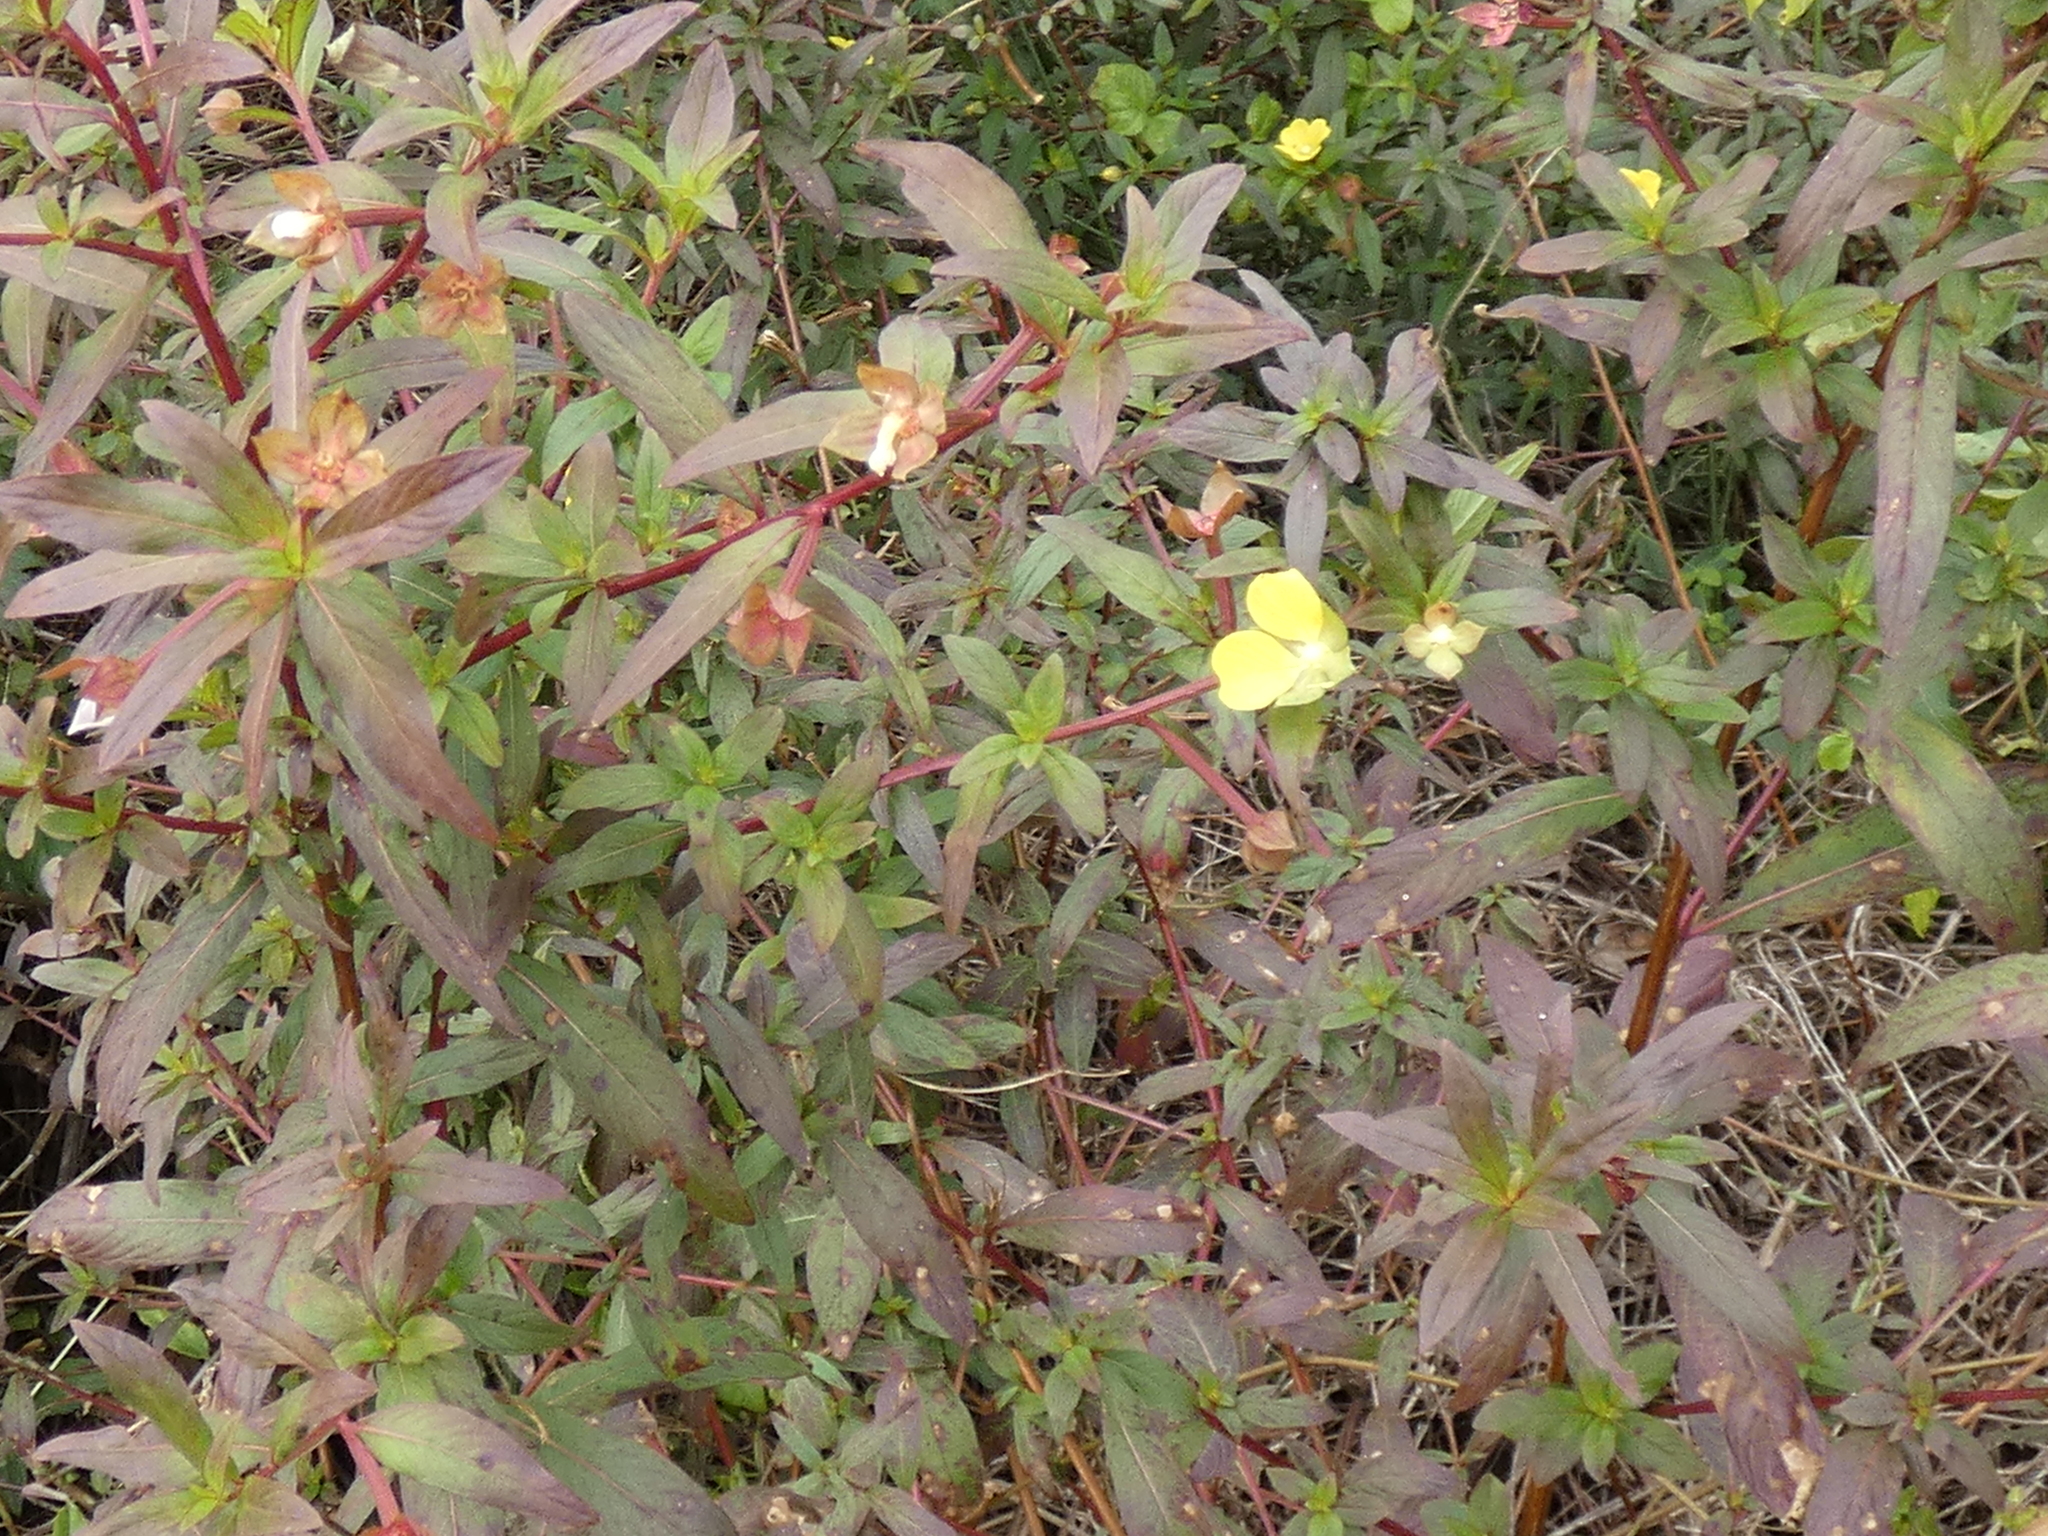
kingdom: Plantae
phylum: Tracheophyta
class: Magnoliopsida
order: Myrtales
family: Onagraceae
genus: Ludwigia
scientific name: Ludwigia octovalvis
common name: Water-primrose
